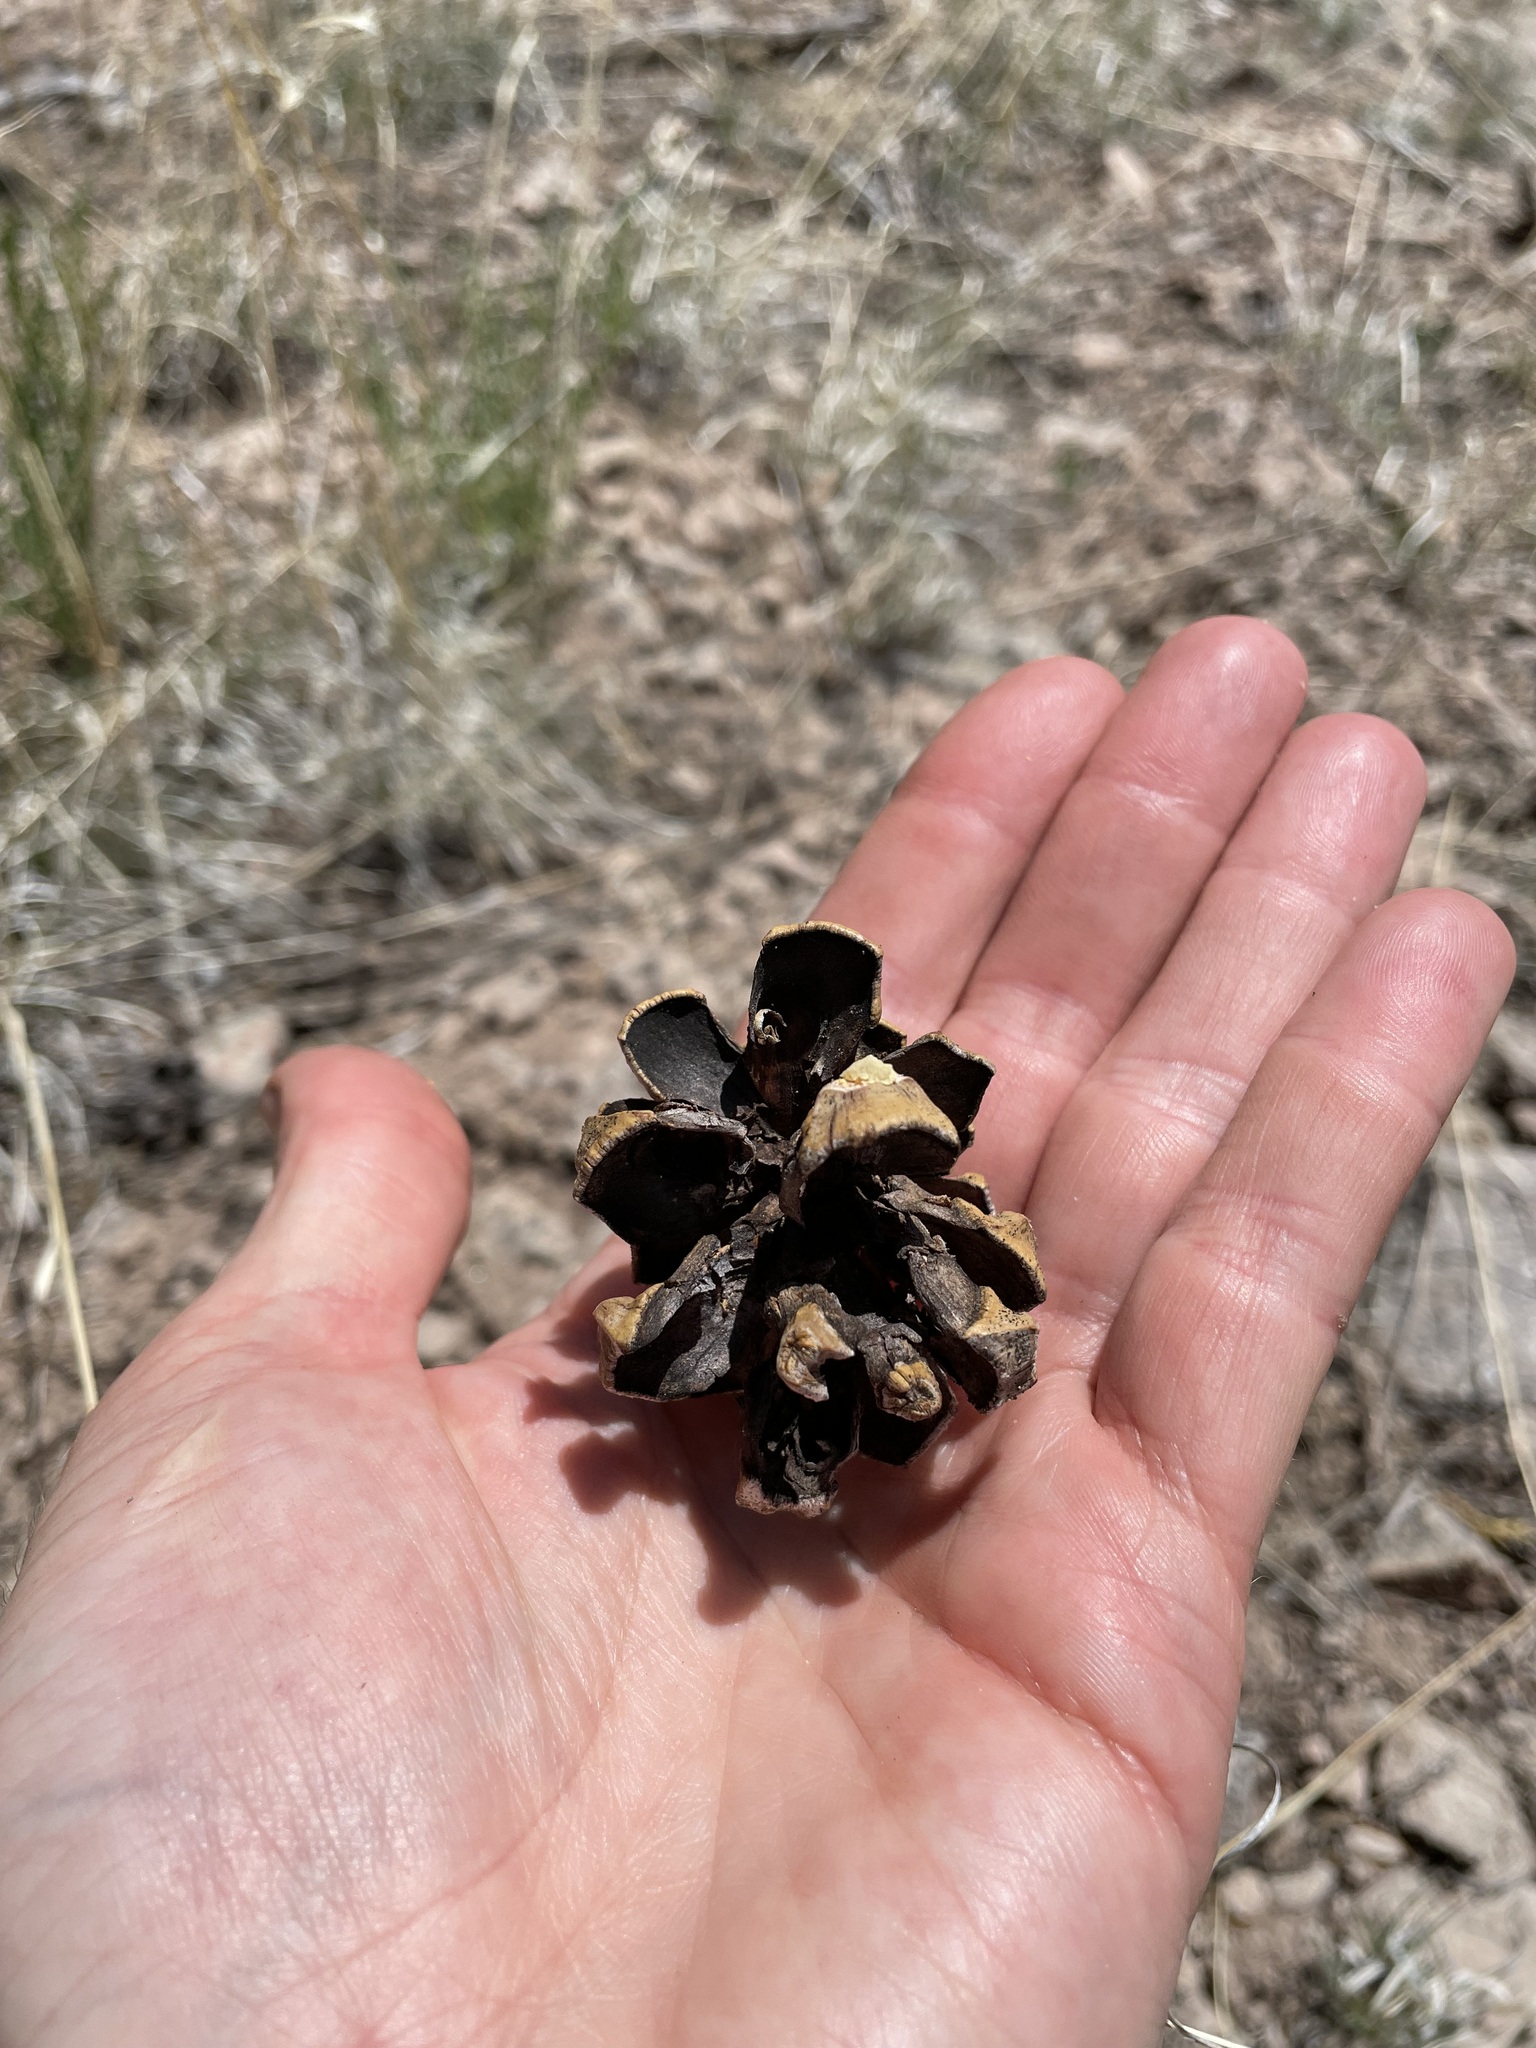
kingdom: Plantae
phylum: Tracheophyta
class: Pinopsida
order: Pinales
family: Pinaceae
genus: Pinus
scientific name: Pinus edulis
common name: Colorado pinyon
